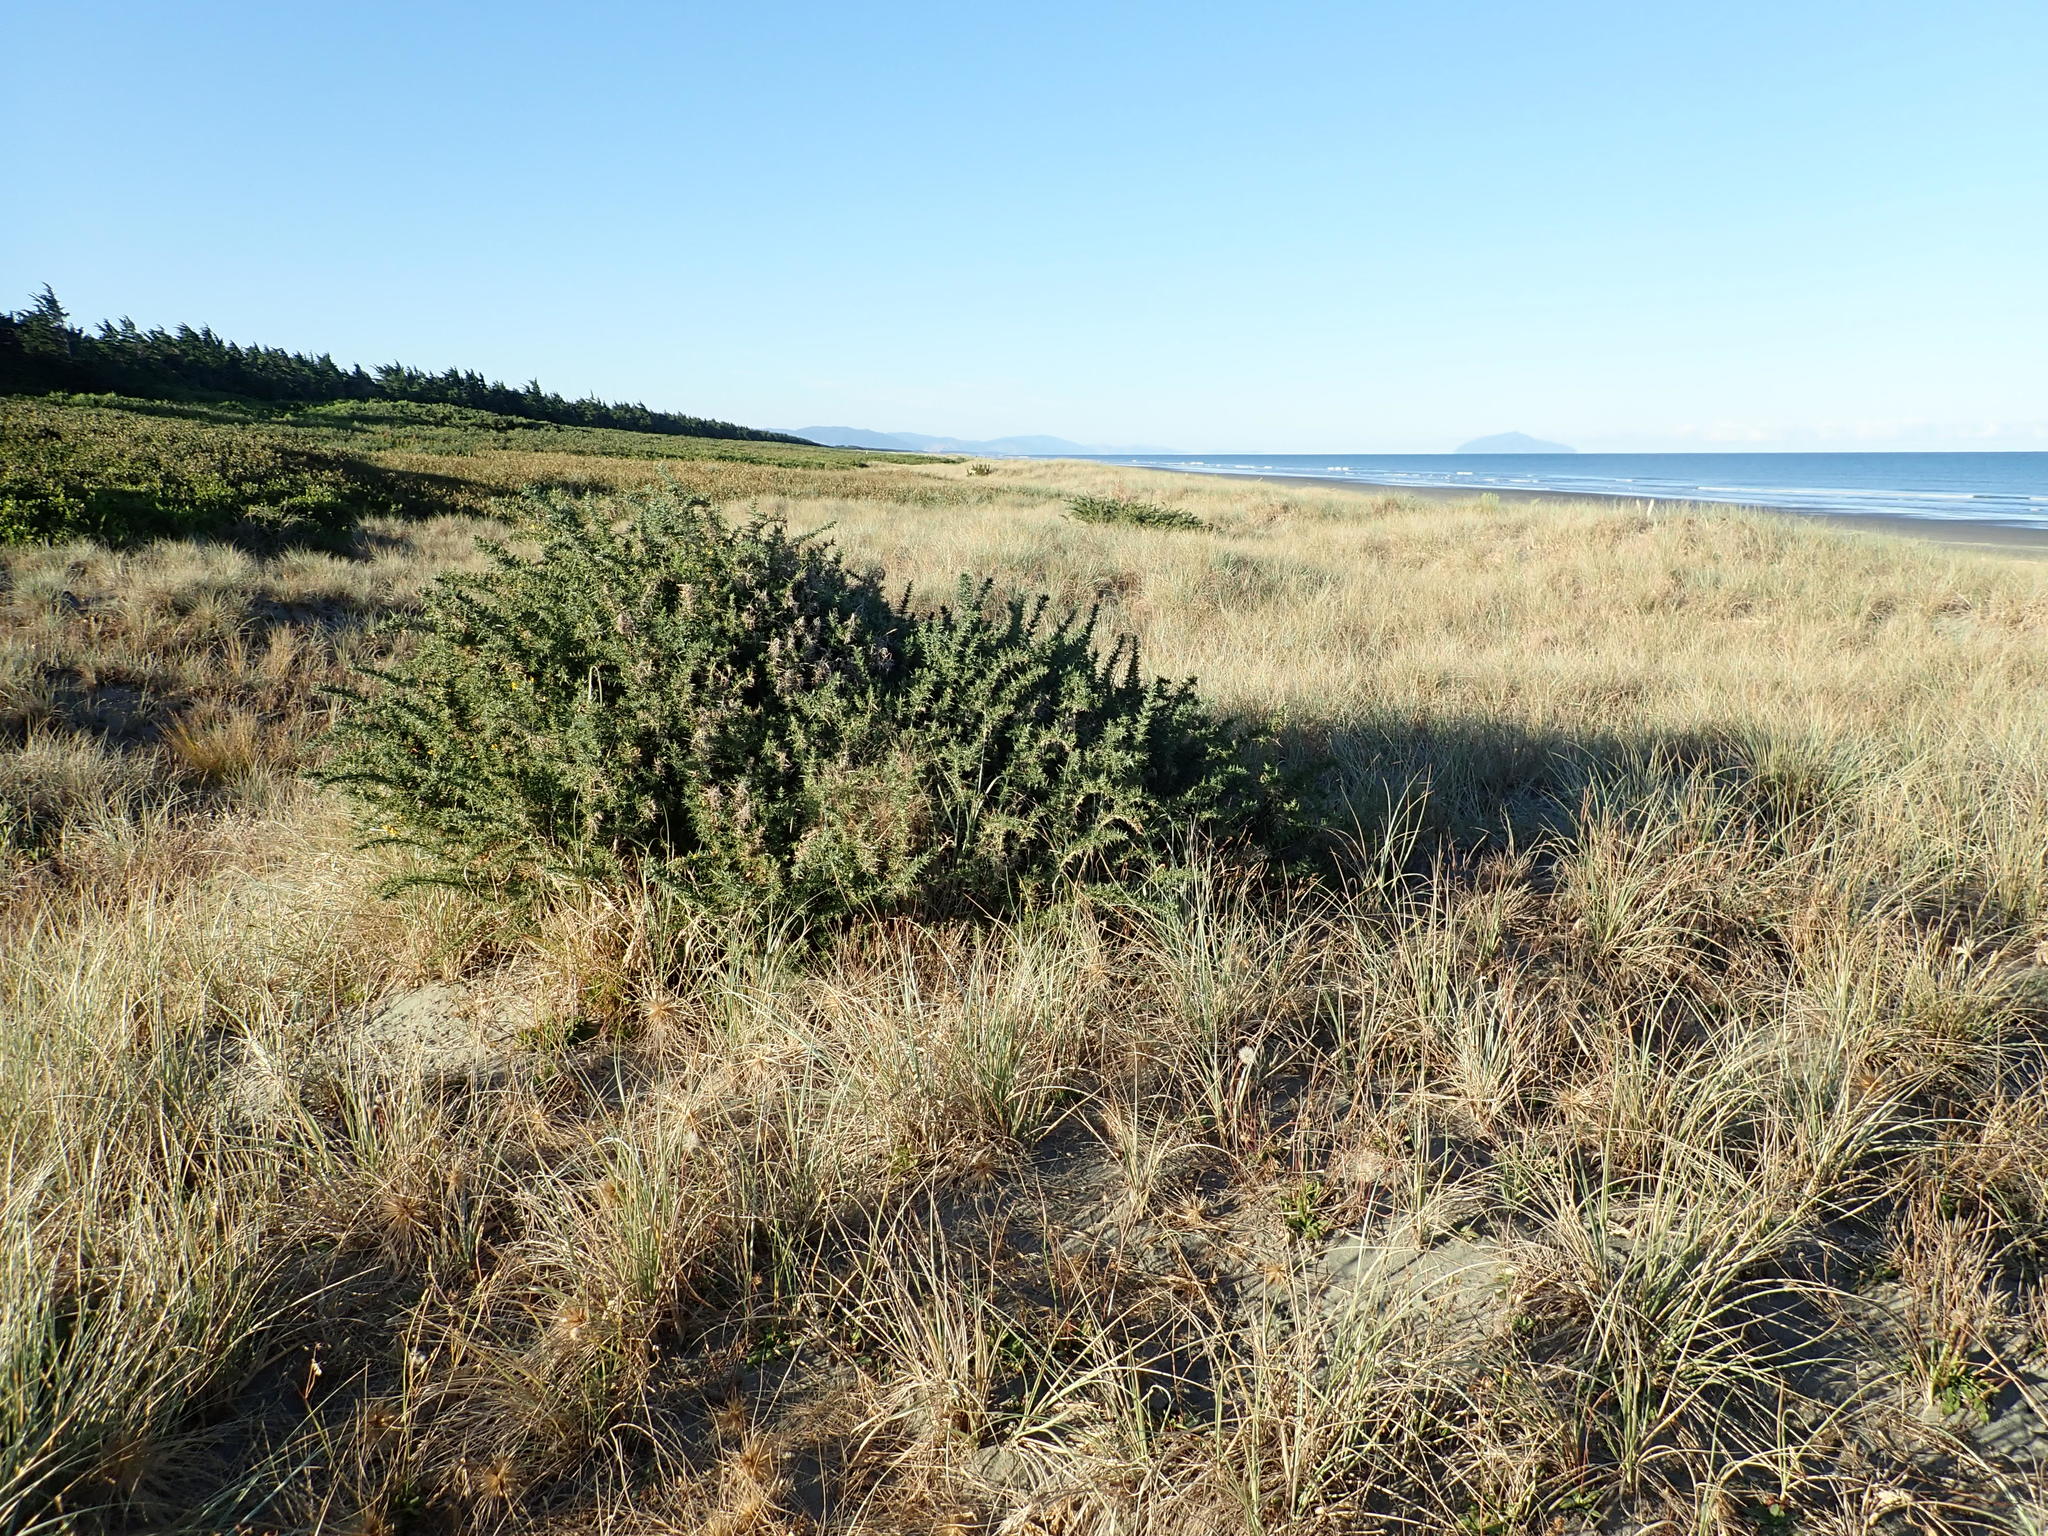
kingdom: Plantae
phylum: Tracheophyta
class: Magnoliopsida
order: Fabales
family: Fabaceae
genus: Ulex
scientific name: Ulex europaeus
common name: Common gorse
